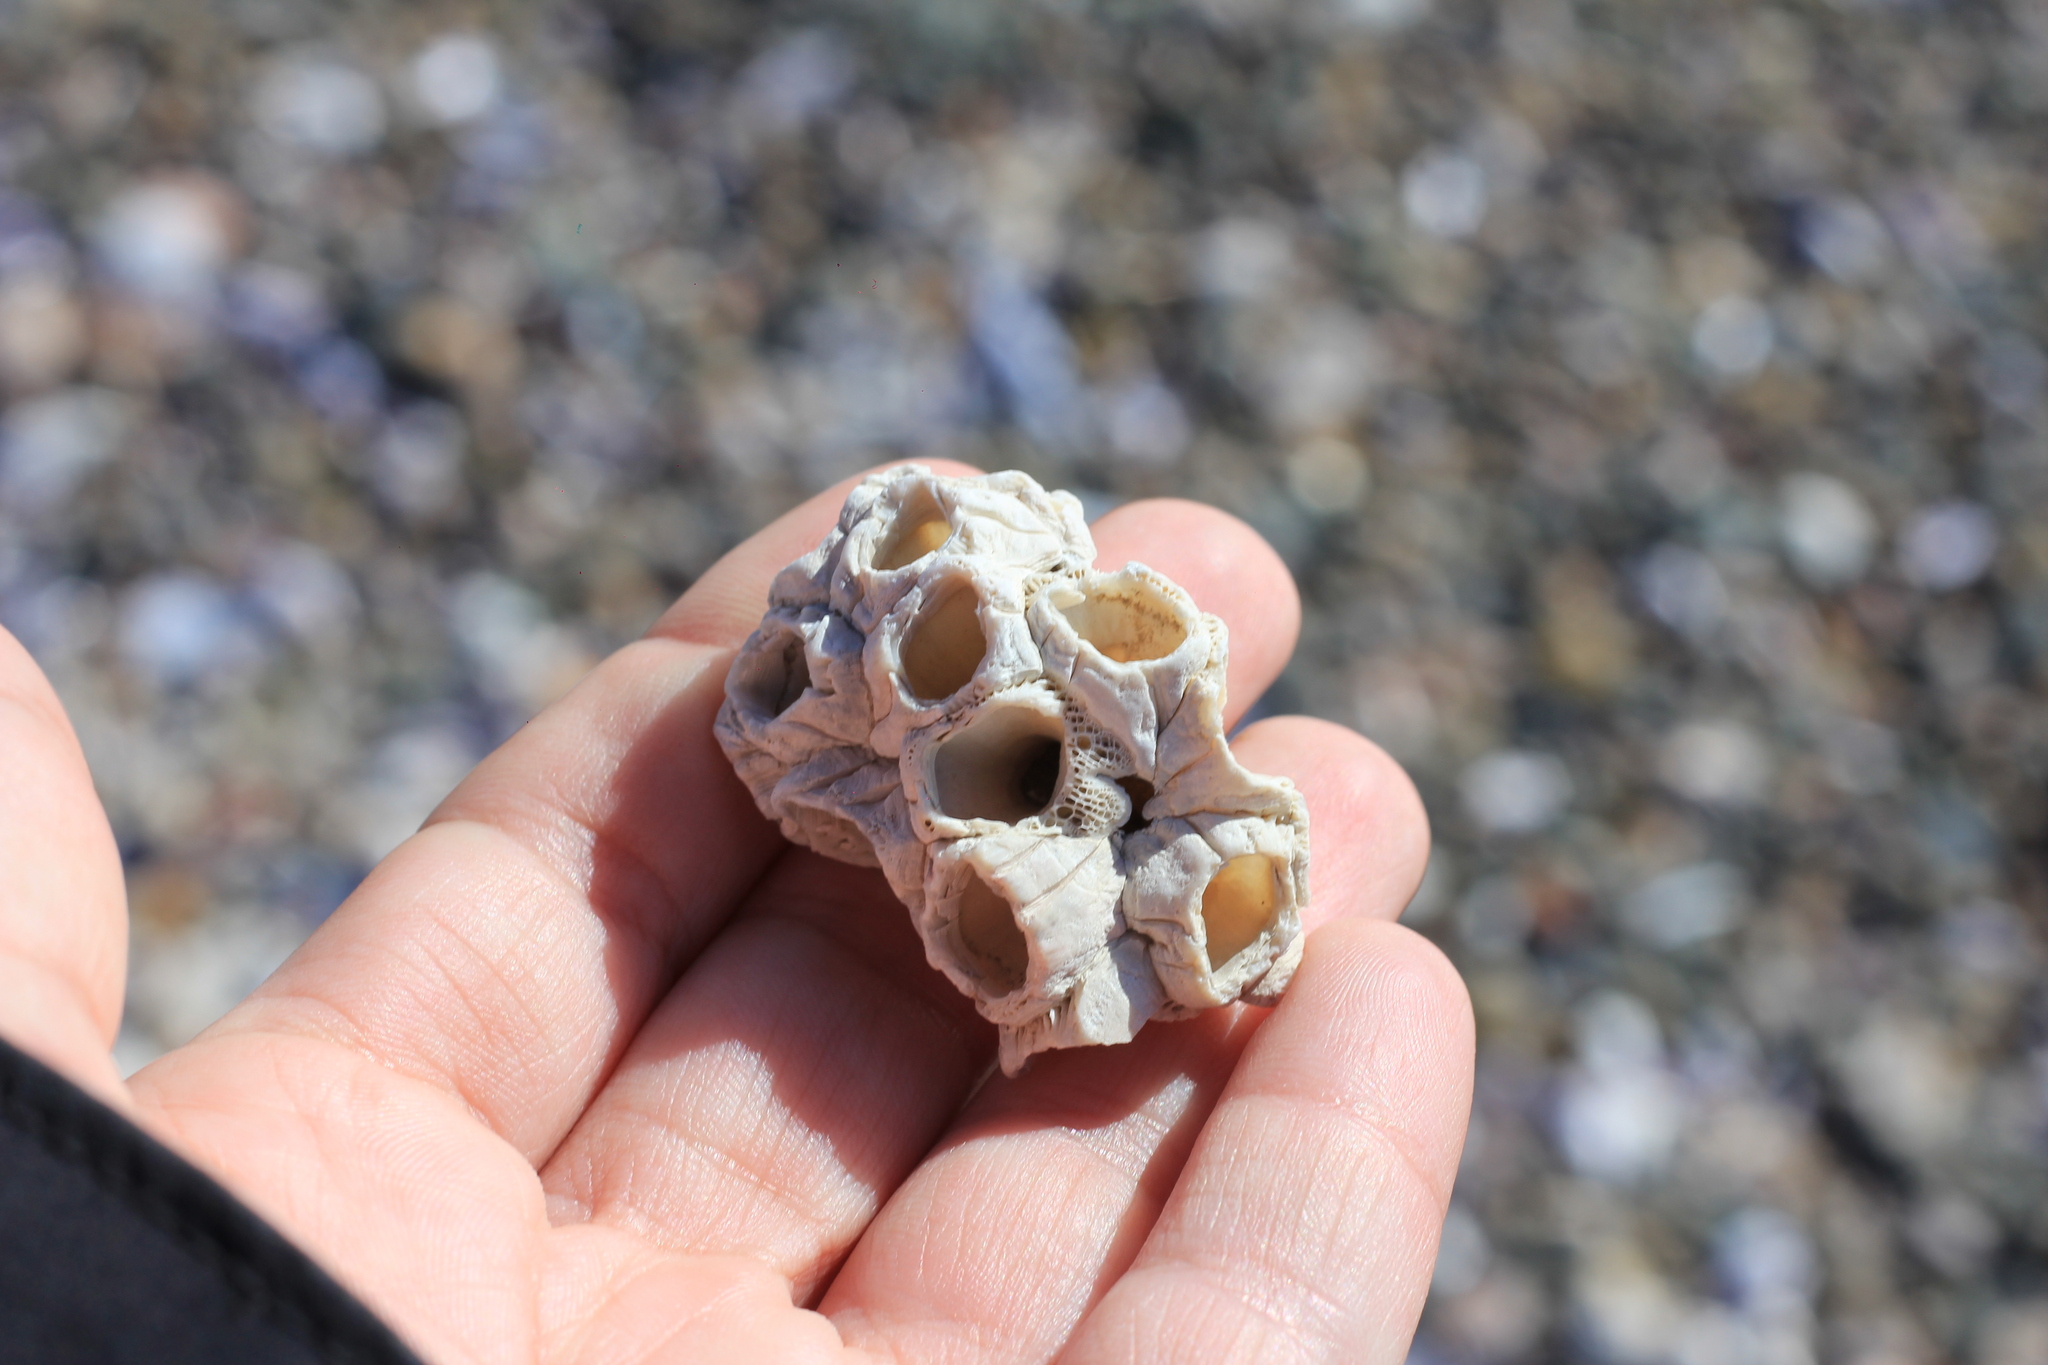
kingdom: Animalia
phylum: Arthropoda
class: Maxillopoda
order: Sessilia
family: Balanidae
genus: Balanus
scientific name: Balanus glandula
